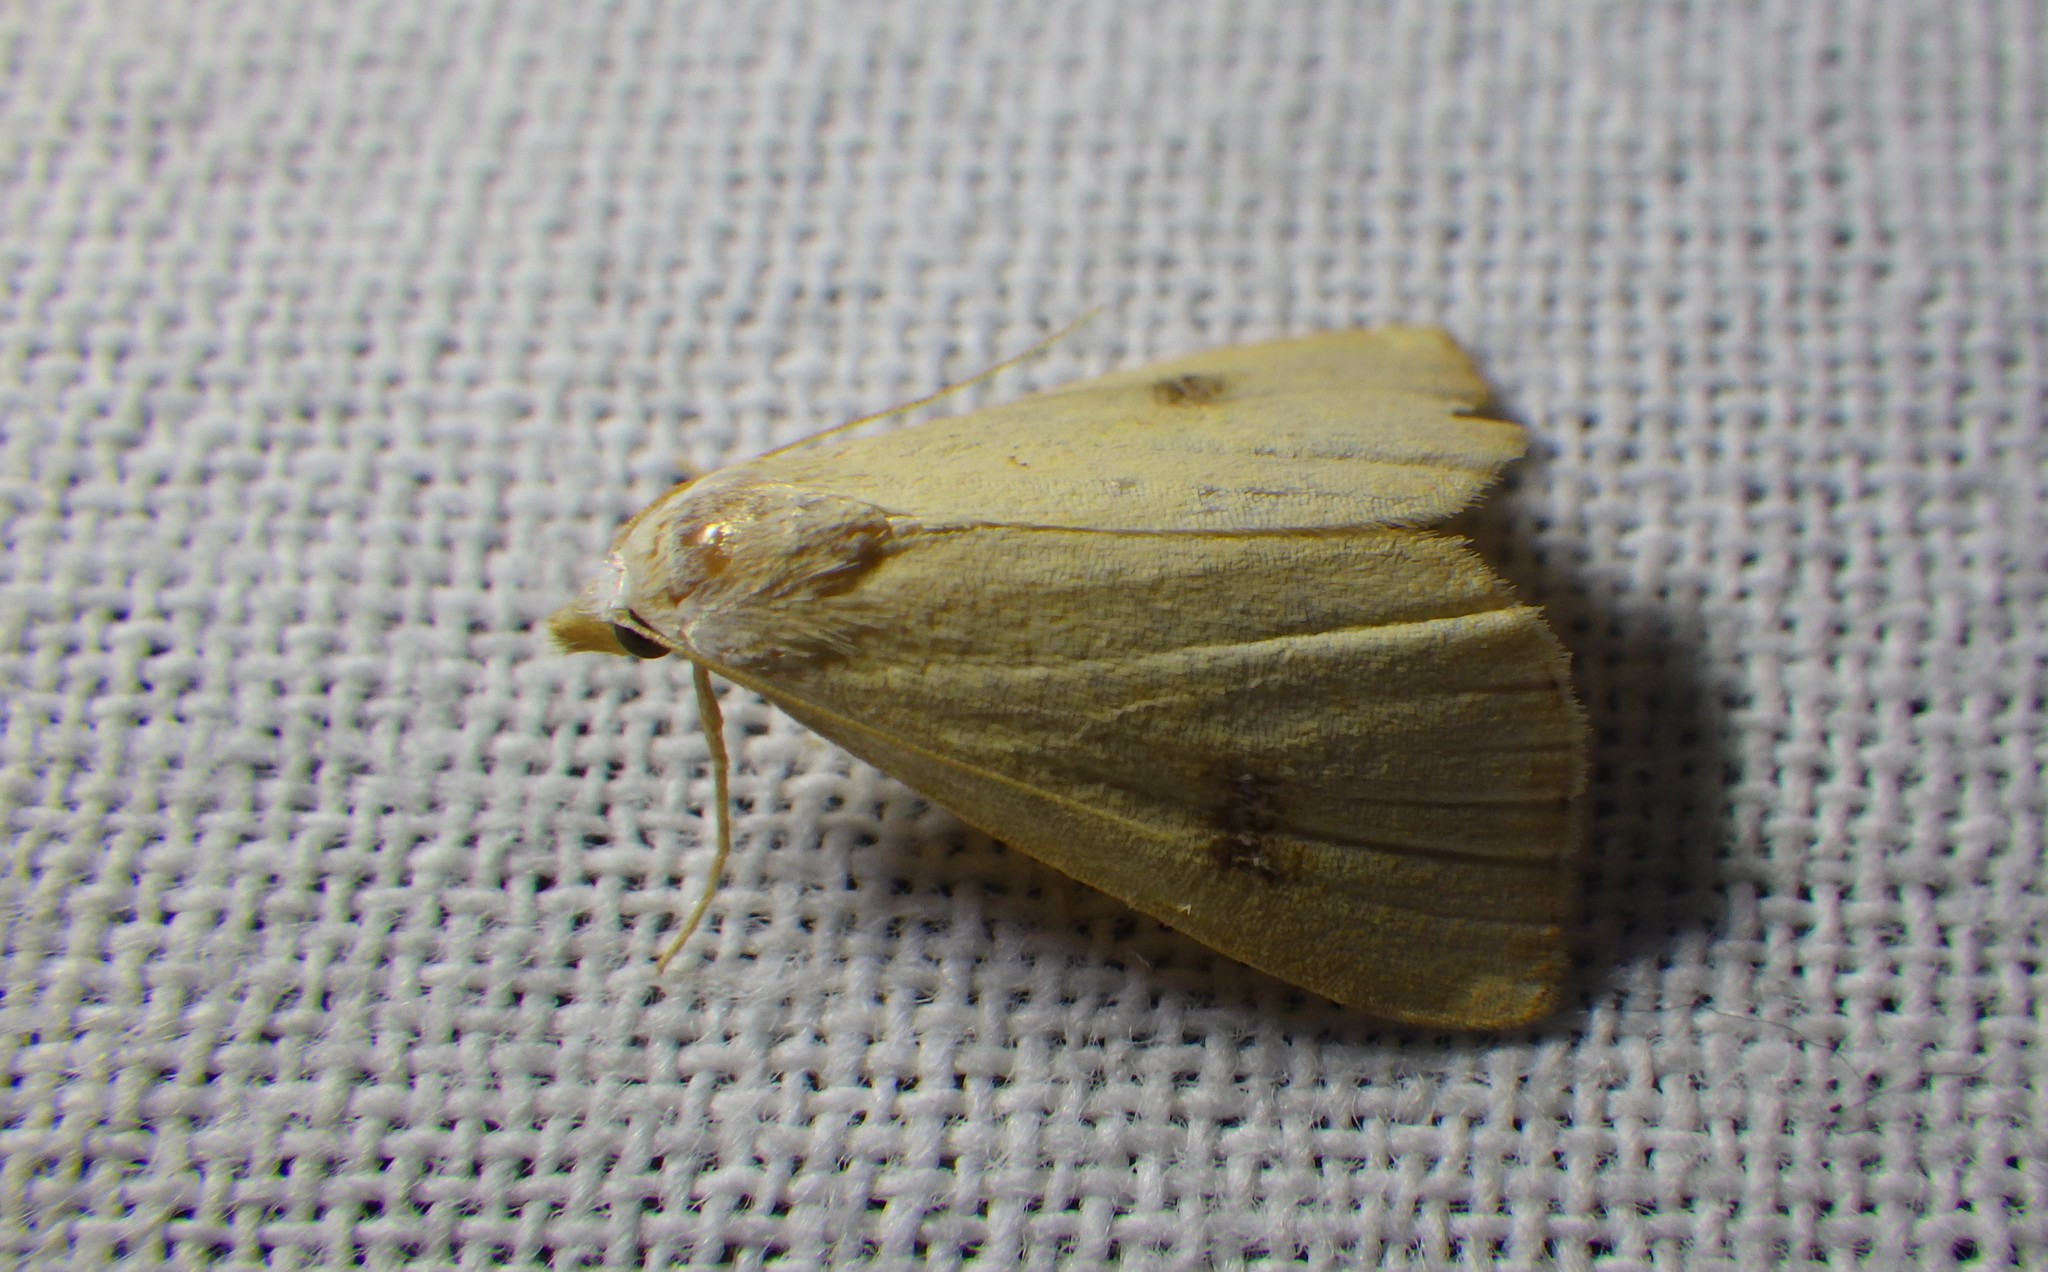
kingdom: Animalia
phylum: Arthropoda
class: Insecta
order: Lepidoptera
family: Erebidae
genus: Rivula
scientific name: Rivula sericealis
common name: Straw dot
